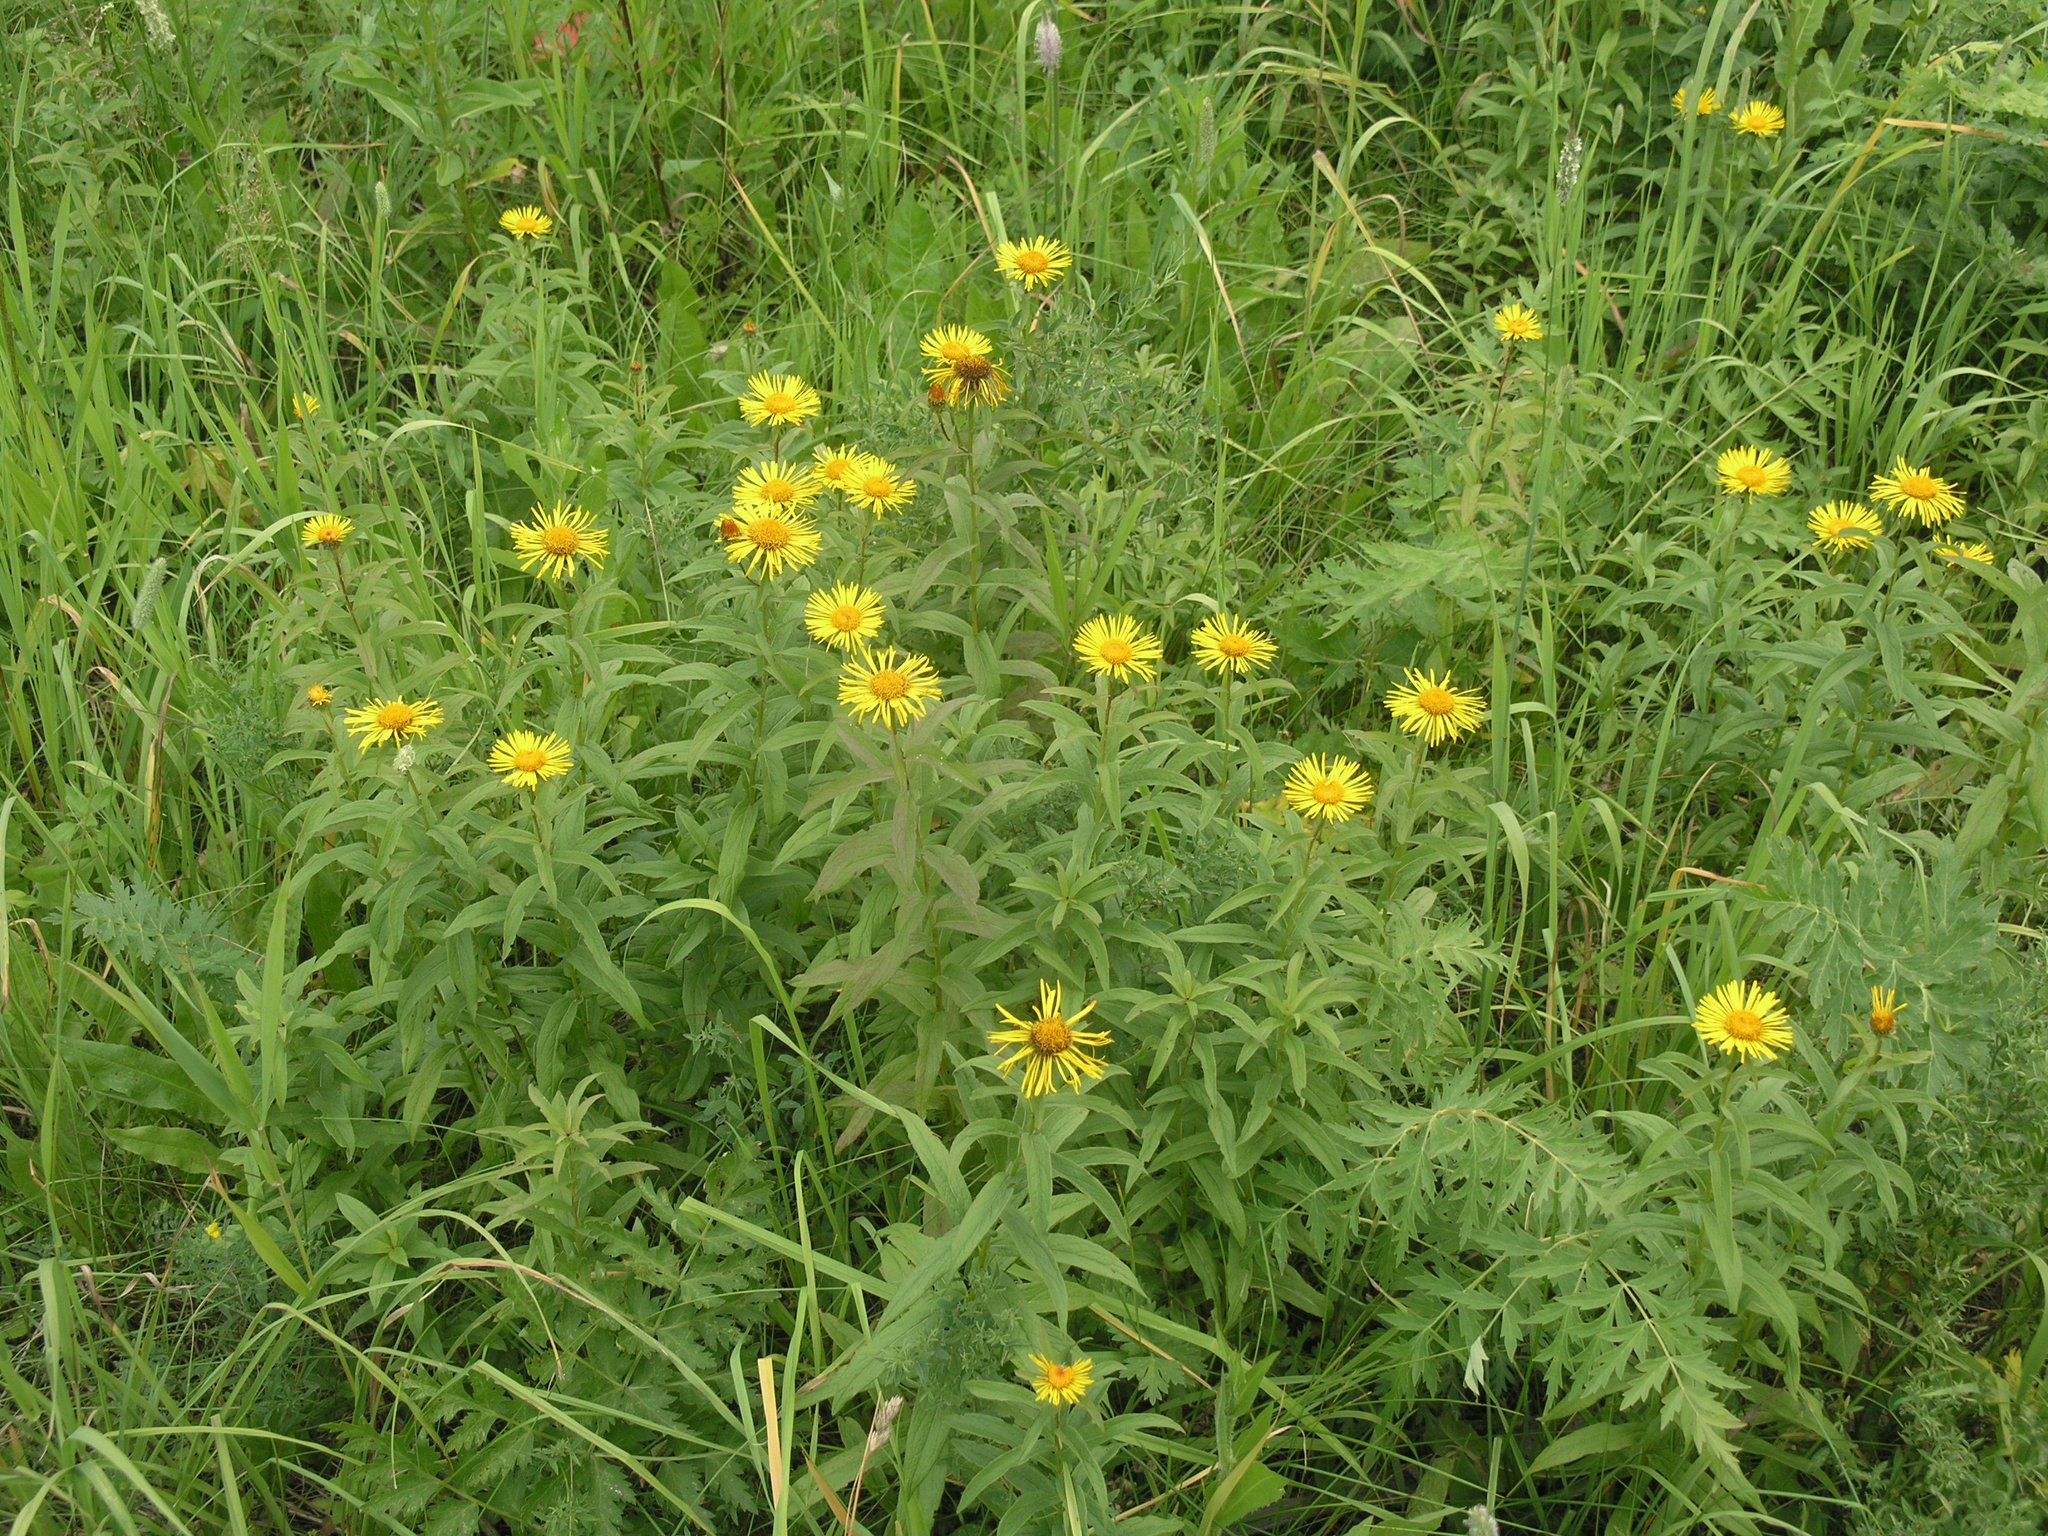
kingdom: Plantae
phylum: Tracheophyta
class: Magnoliopsida
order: Asterales
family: Asteraceae
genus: Pentanema
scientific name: Pentanema salicinum
